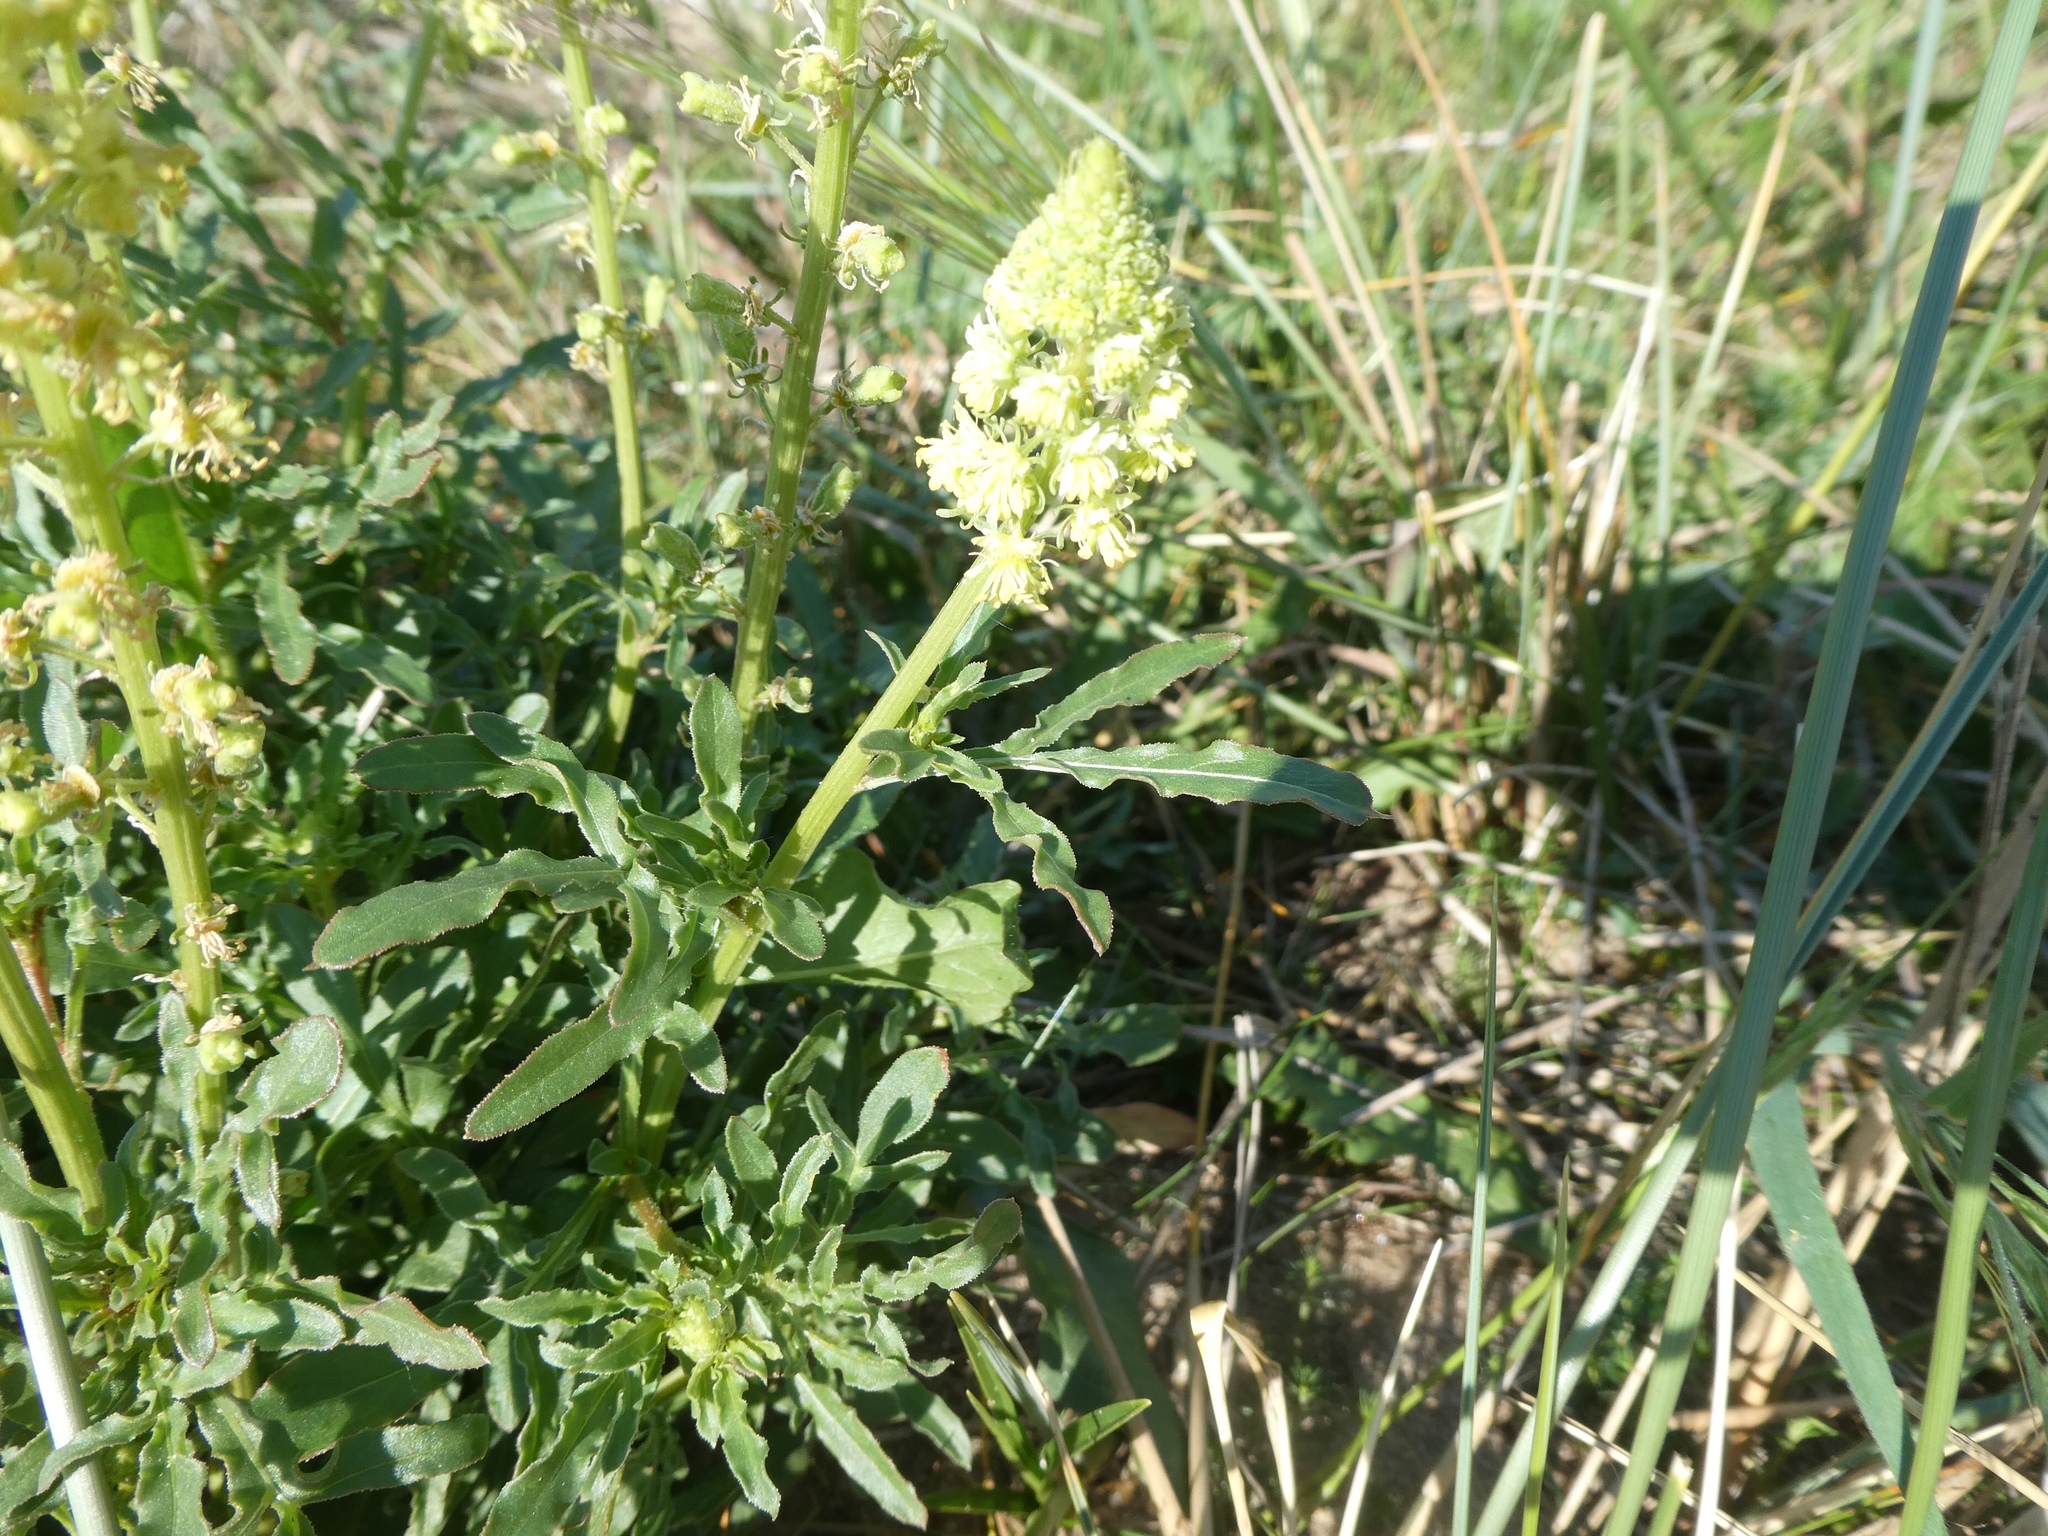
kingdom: Plantae
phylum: Tracheophyta
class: Magnoliopsida
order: Brassicales
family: Resedaceae
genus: Reseda
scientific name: Reseda lutea
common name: Wild mignonette
